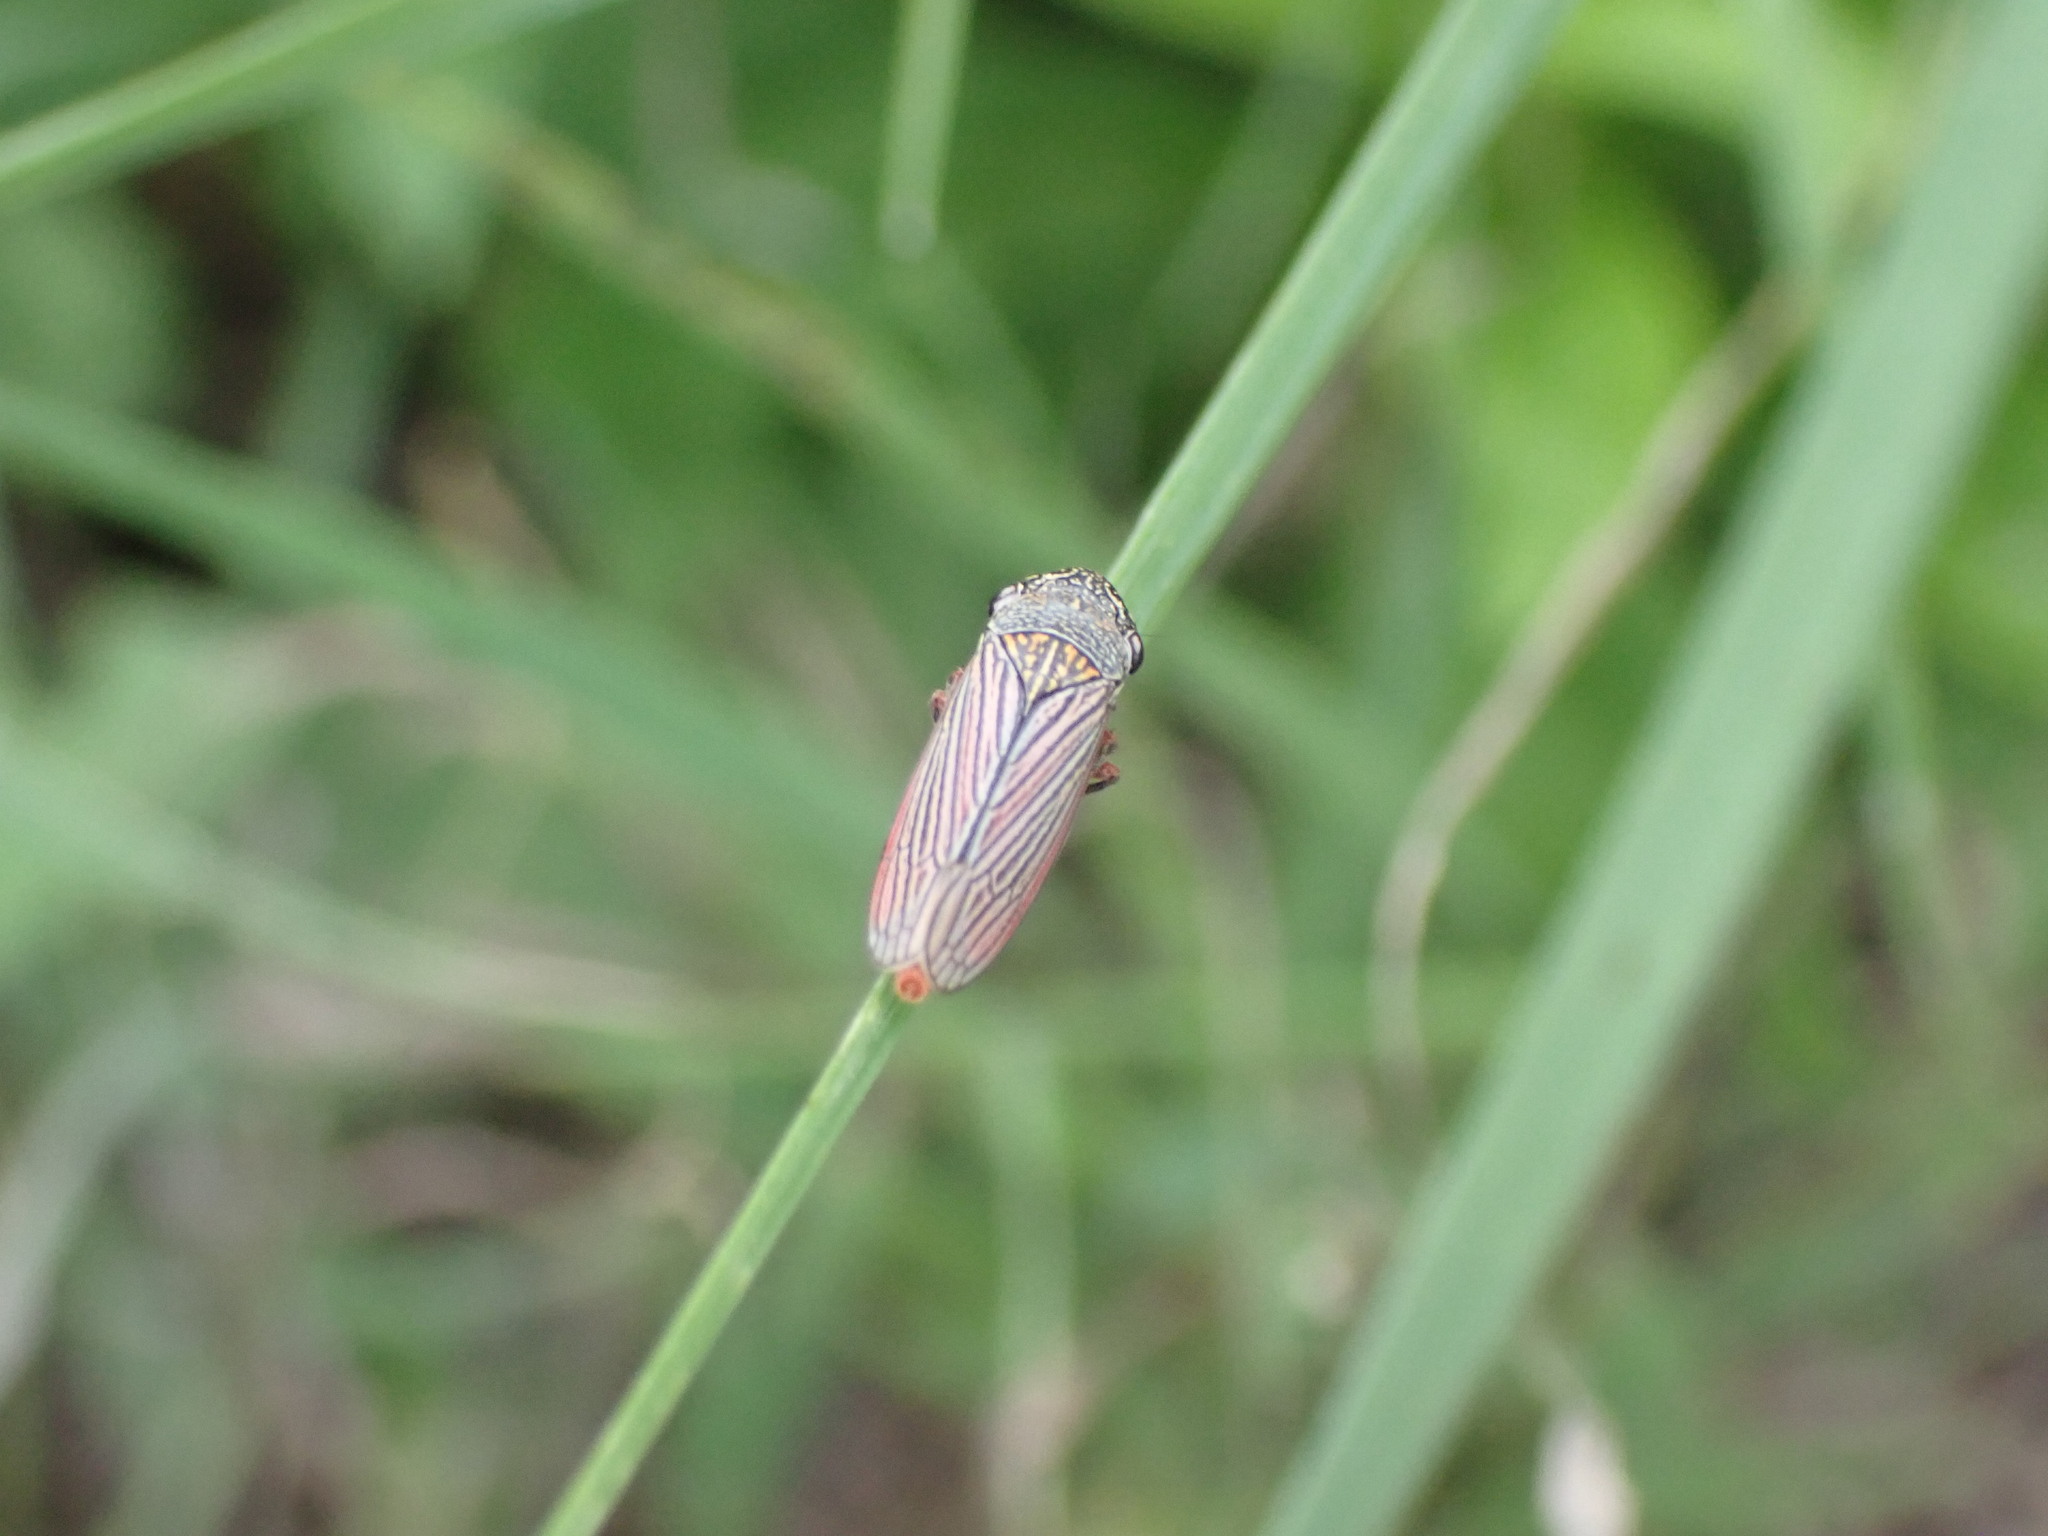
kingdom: Animalia
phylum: Arthropoda
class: Insecta
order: Hemiptera
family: Cicadellidae
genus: Cuerna
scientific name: Cuerna costalis
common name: Lateral-lined sharpshooter
